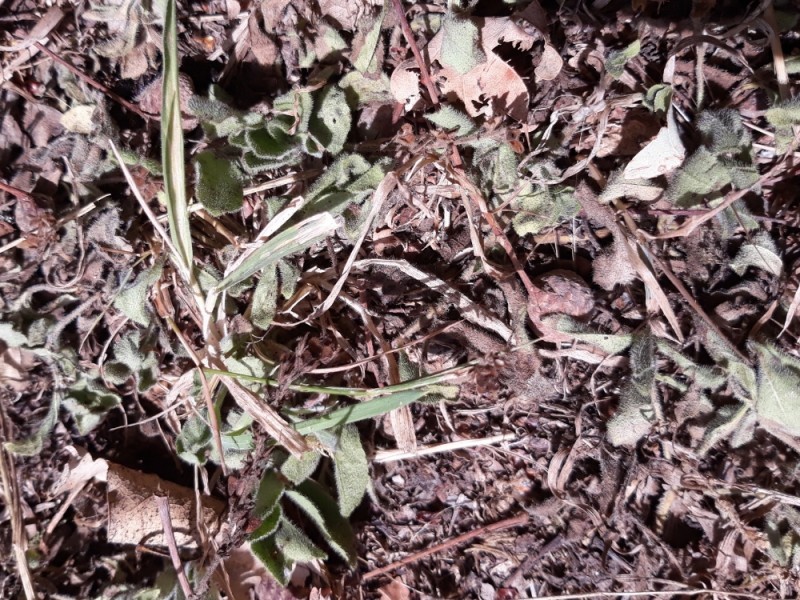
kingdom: Plantae
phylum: Tracheophyta
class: Magnoliopsida
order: Lamiales
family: Plantaginaceae
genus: Veronica
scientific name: Veronica officinalis
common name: Common speedwell
